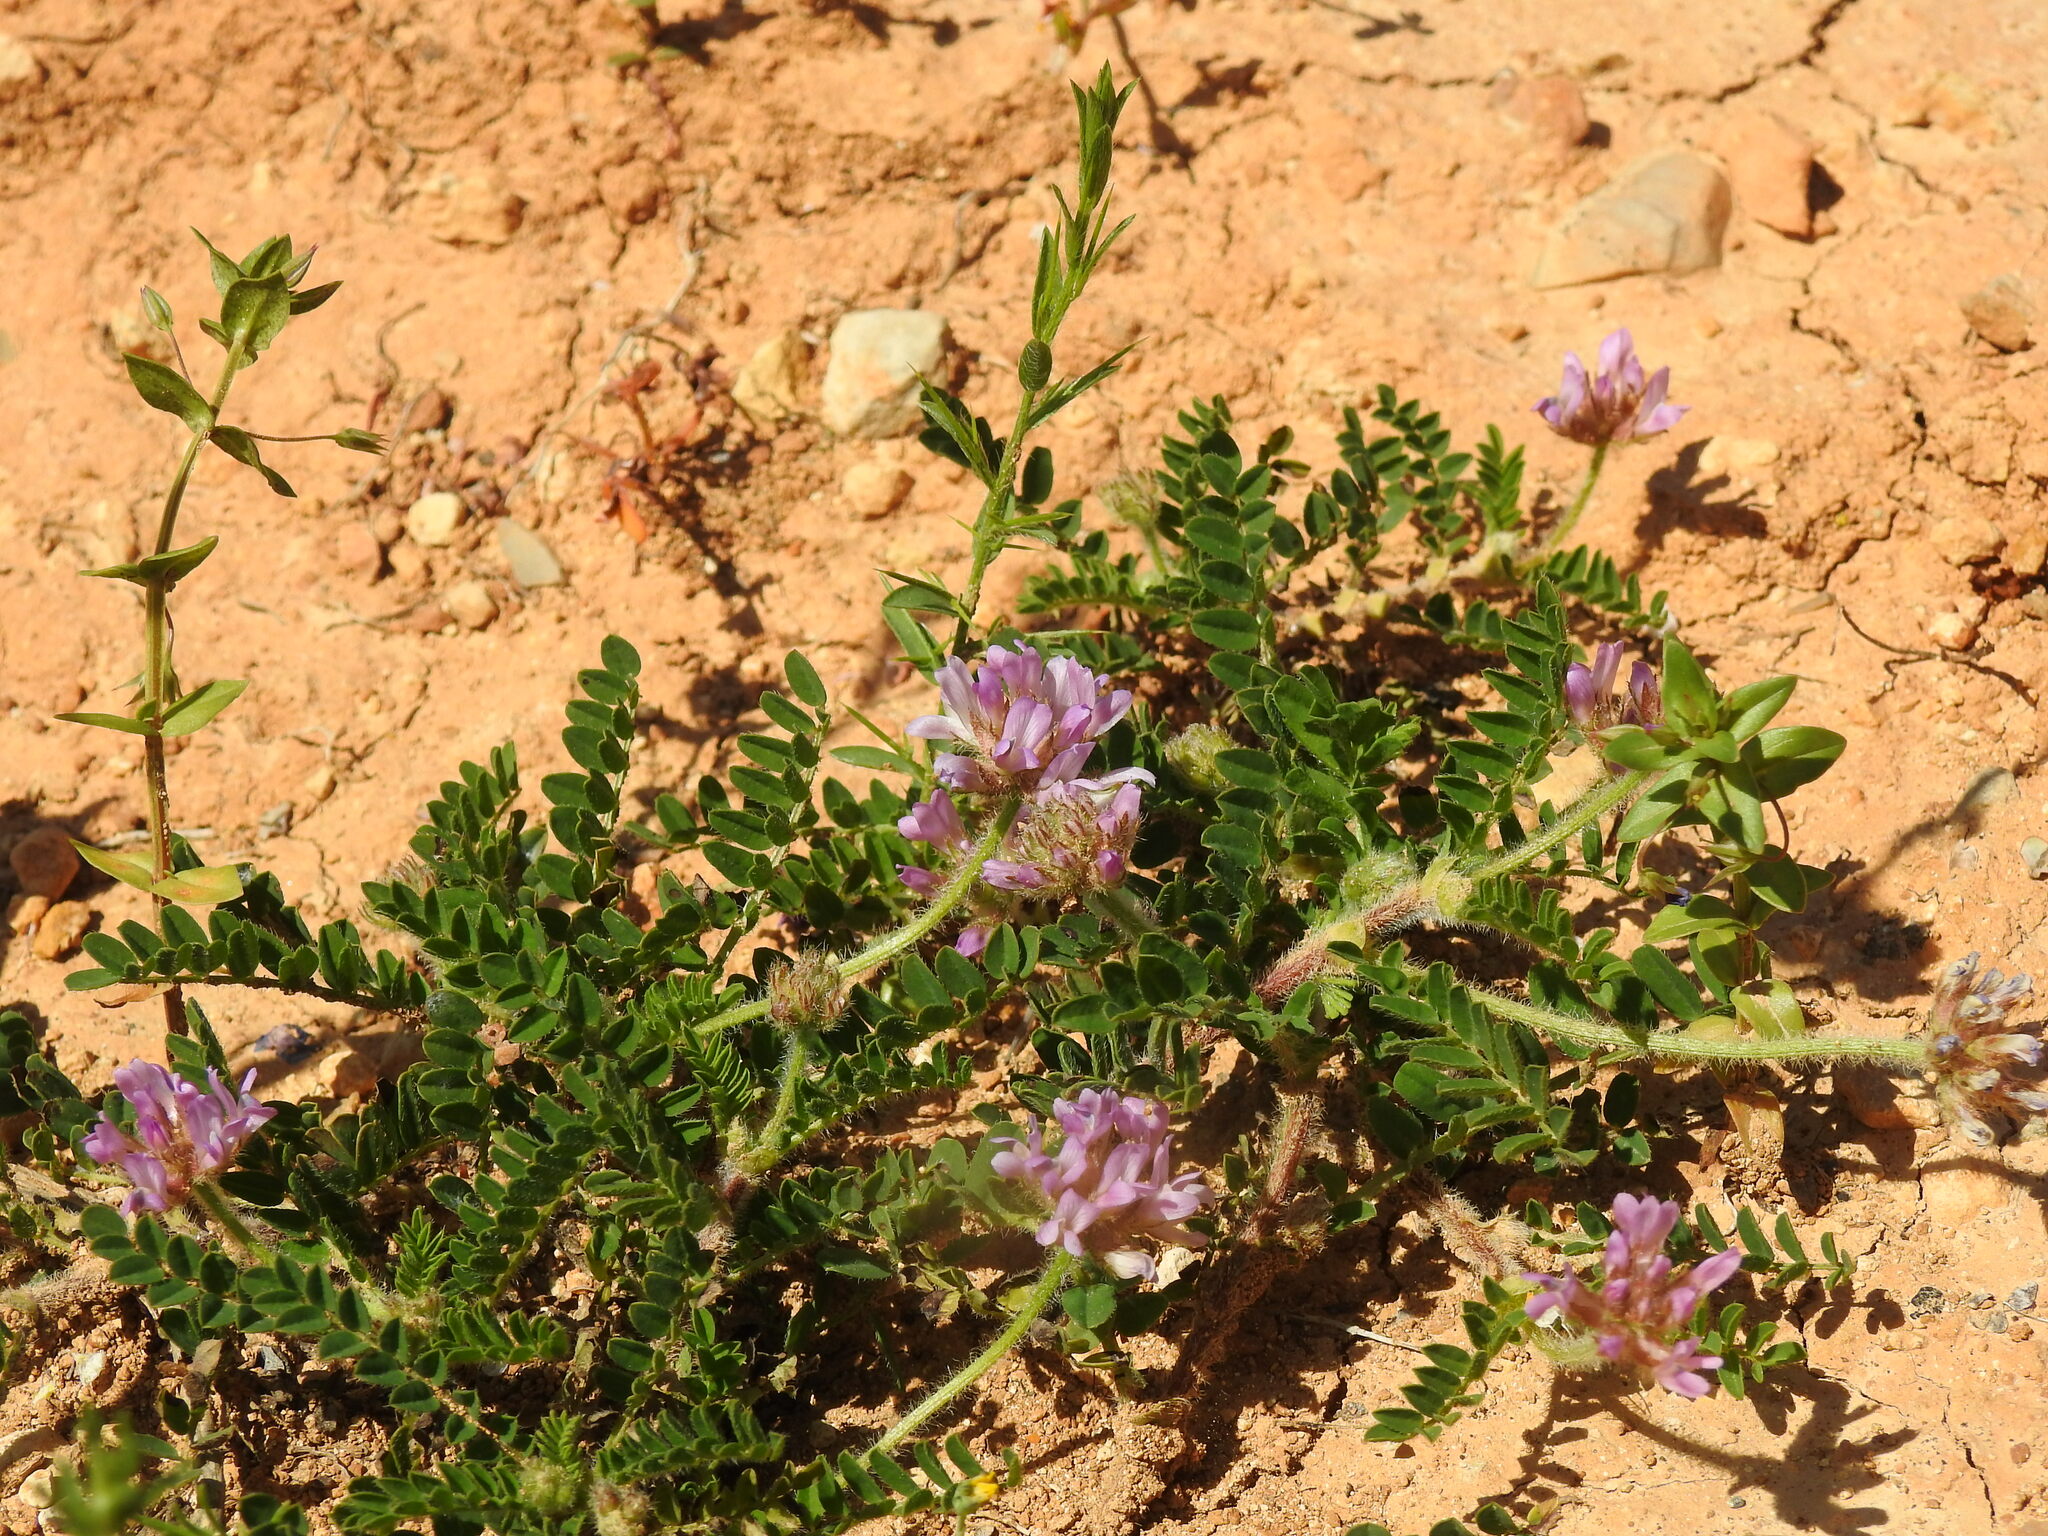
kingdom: Plantae
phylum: Tracheophyta
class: Magnoliopsida
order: Fabales
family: Fabaceae
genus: Astragalus
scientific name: Astragalus echinatus
